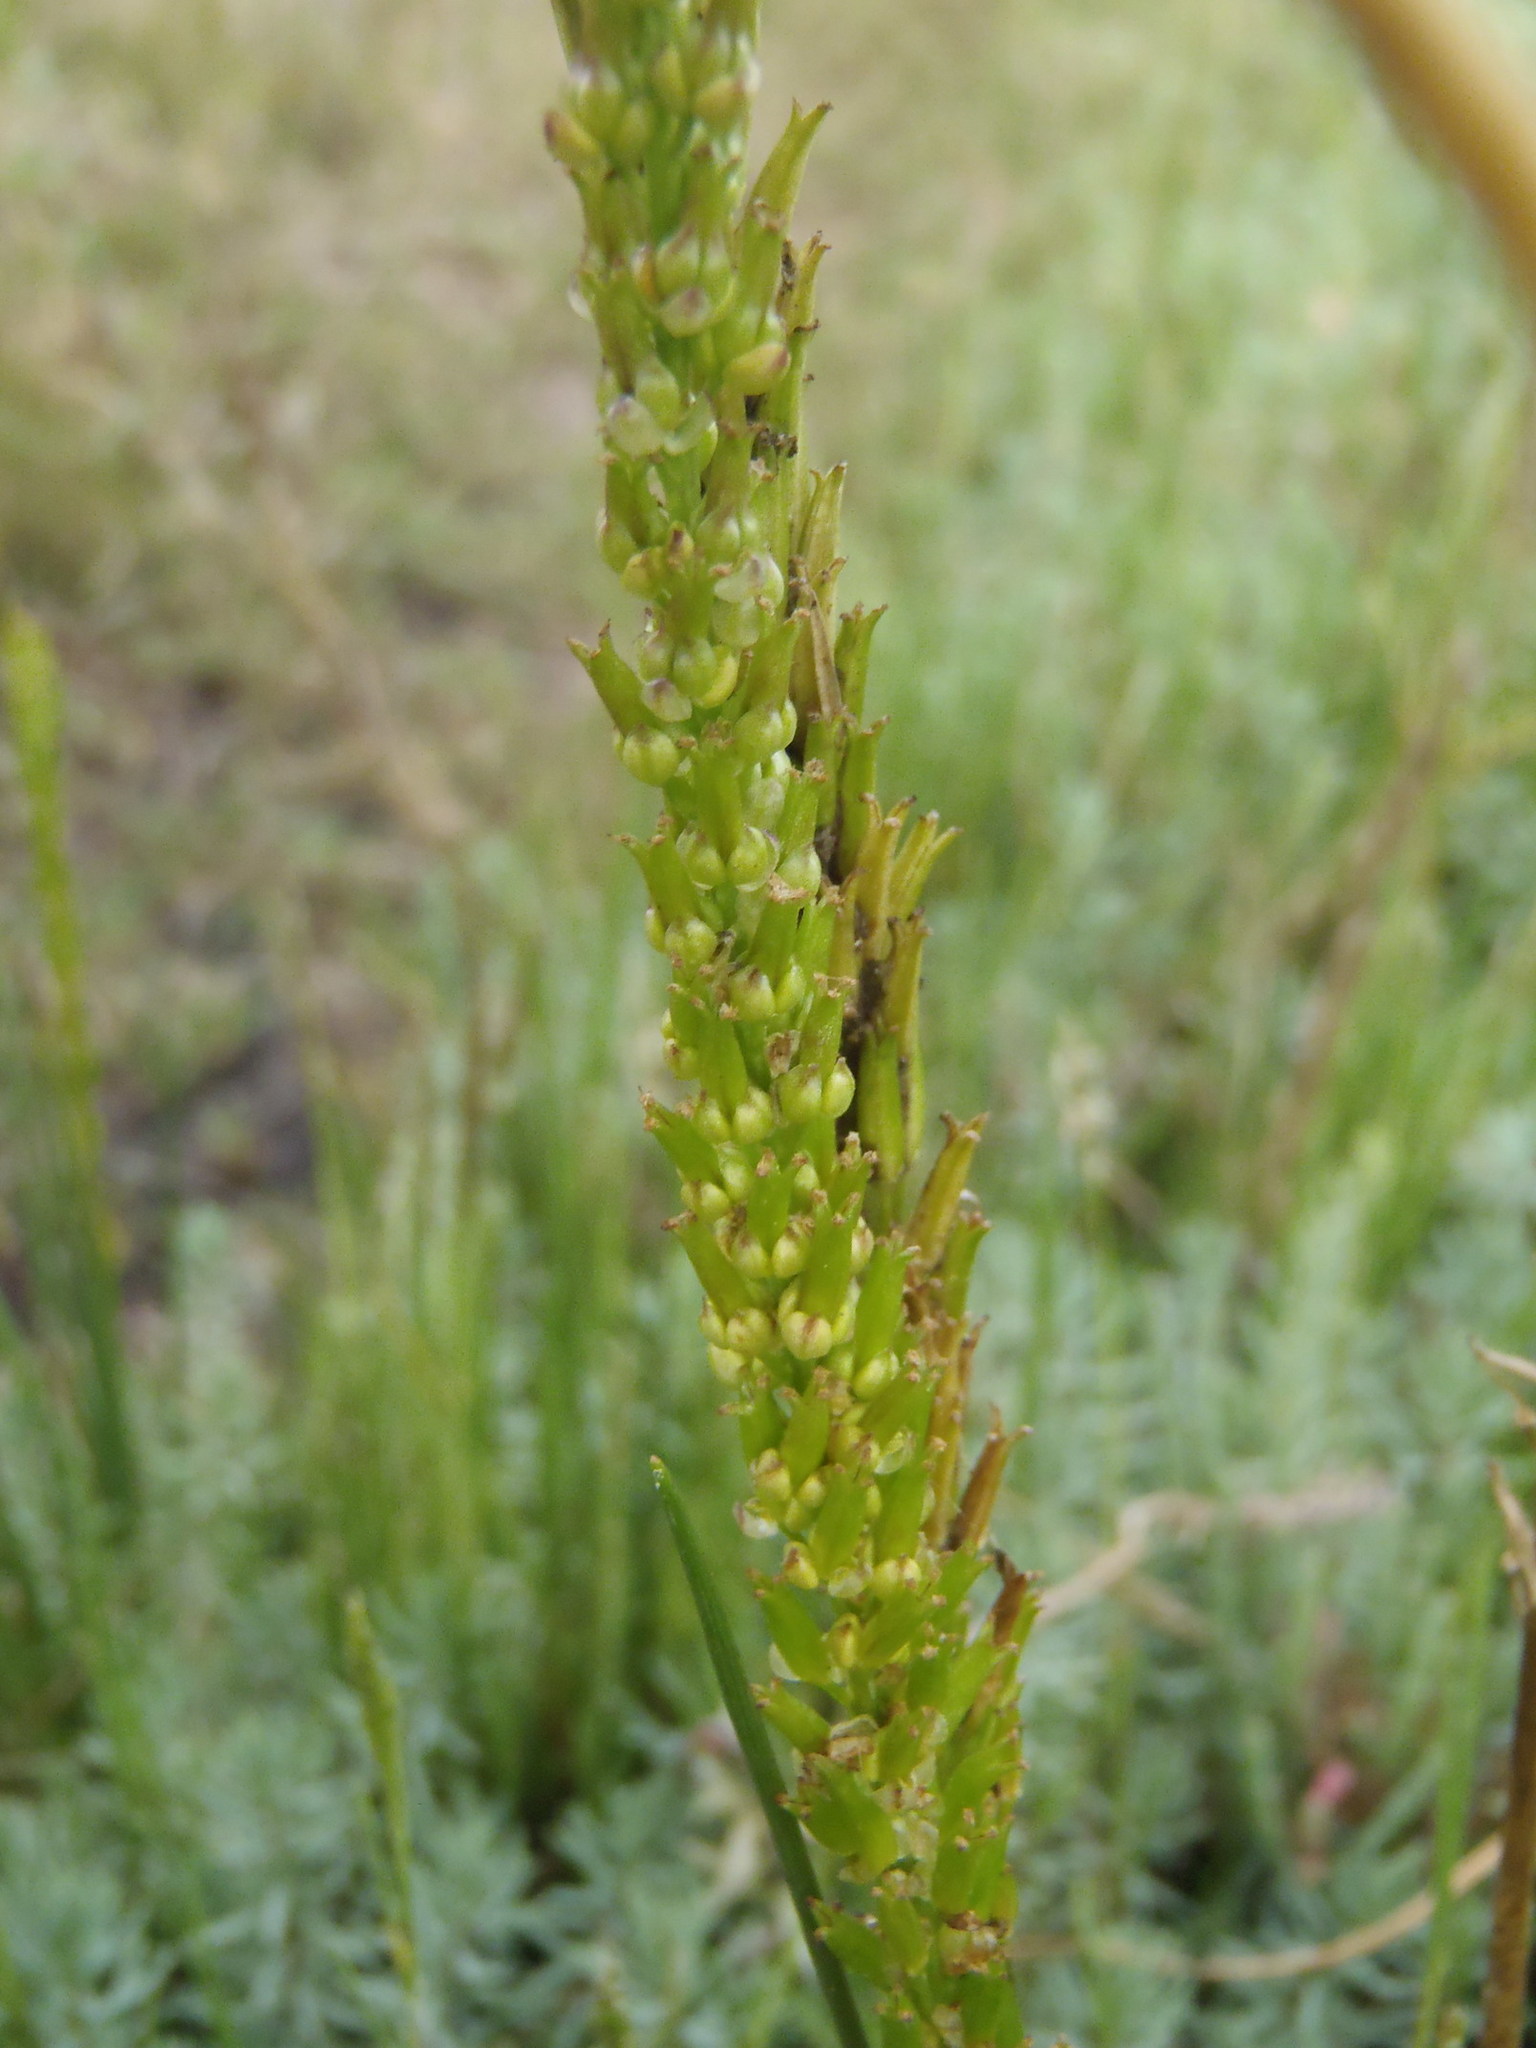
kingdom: Plantae
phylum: Tracheophyta
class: Liliopsida
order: Alismatales
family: Juncaginaceae
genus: Triglochin
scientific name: Triglochin buchenaui
